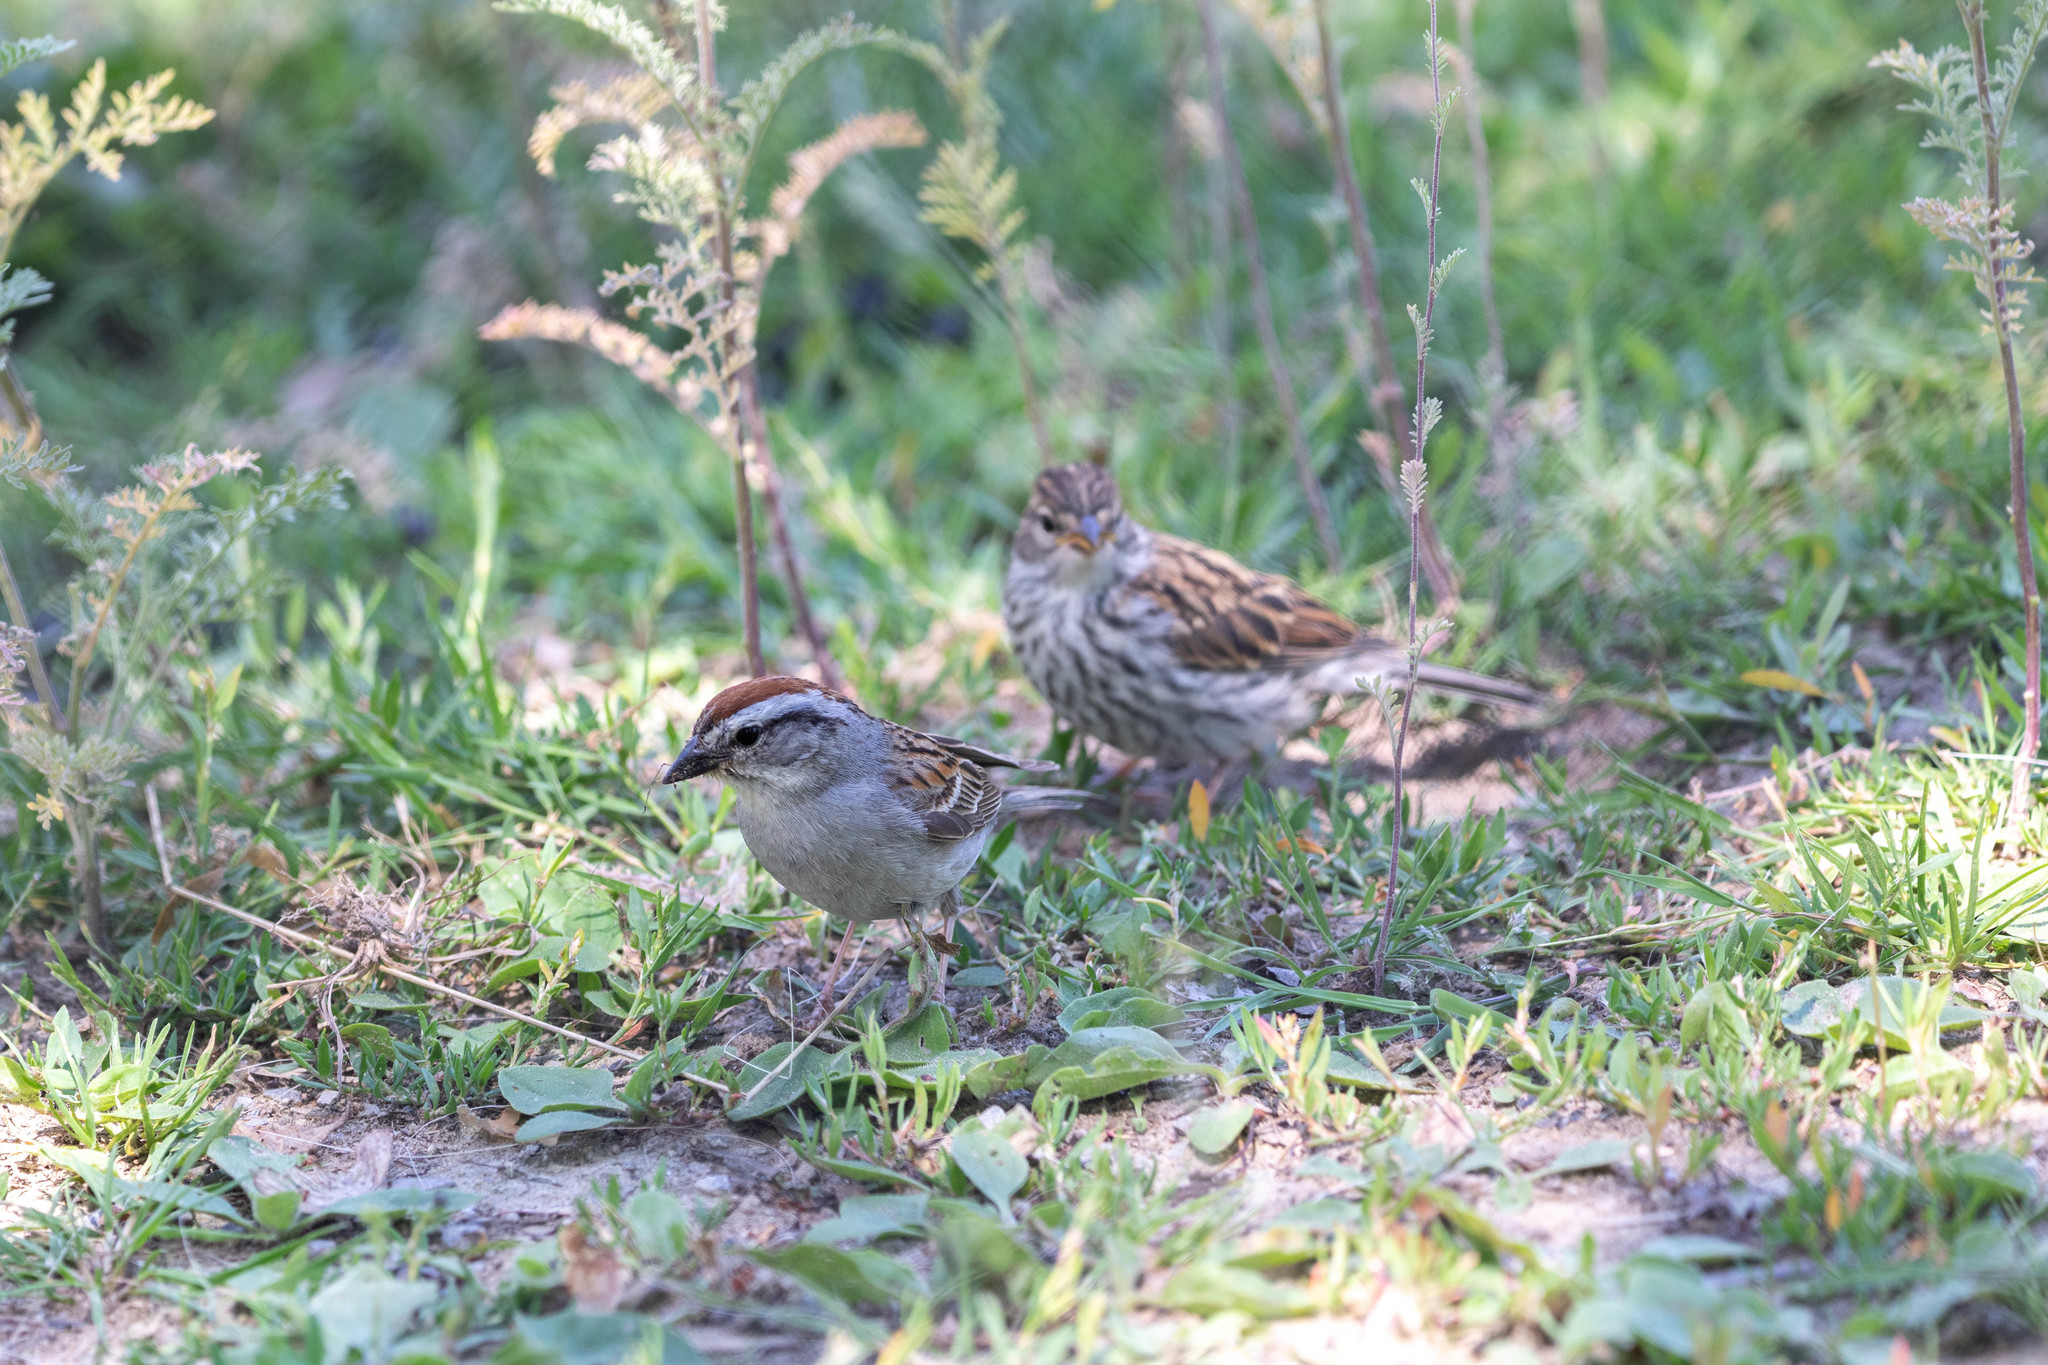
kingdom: Animalia
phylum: Chordata
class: Aves
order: Passeriformes
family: Passerellidae
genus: Spizella
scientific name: Spizella passerina
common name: Chipping sparrow
